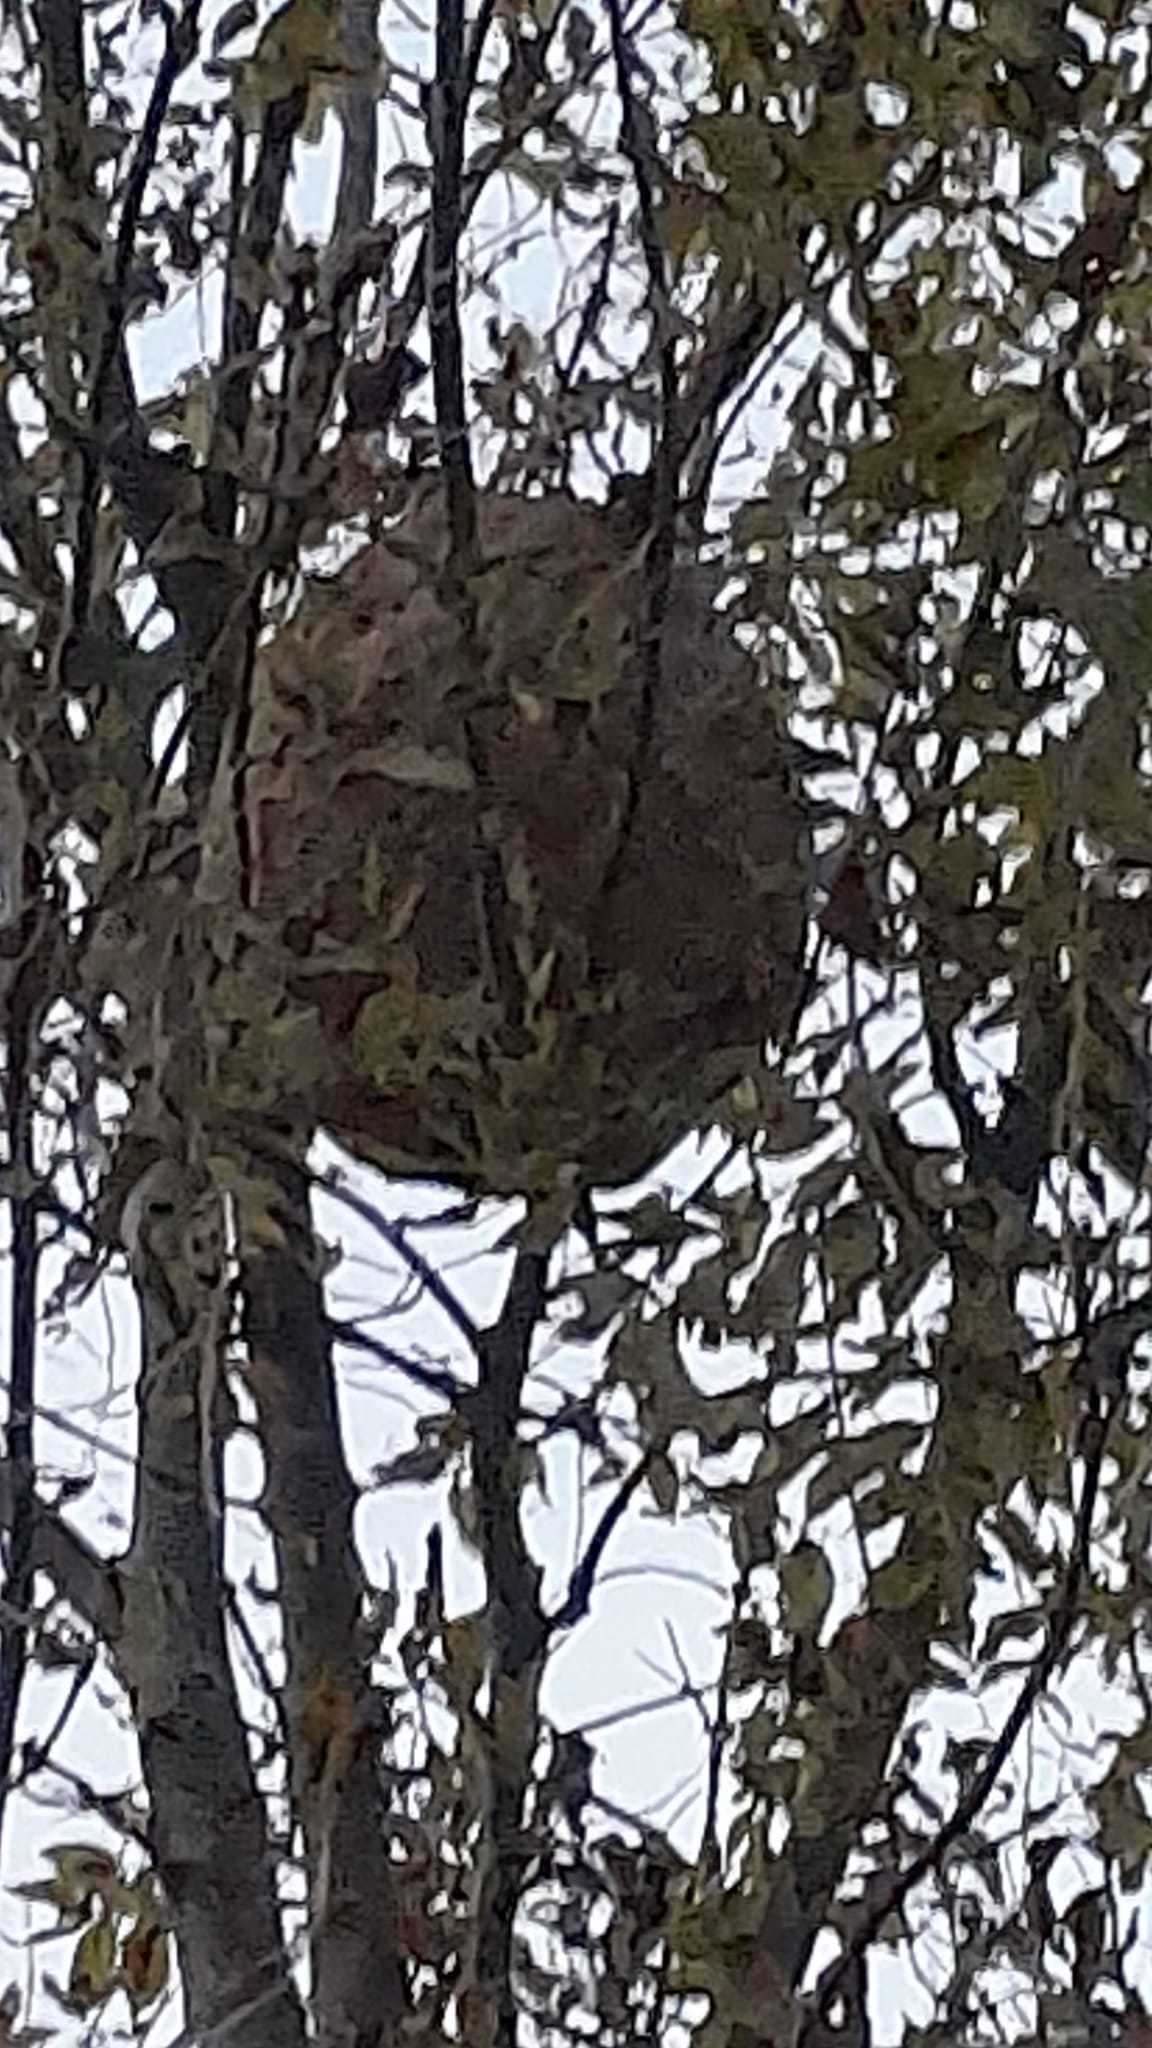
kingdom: Animalia
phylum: Arthropoda
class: Insecta
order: Hymenoptera
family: Vespidae
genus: Vespa
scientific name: Vespa velutina
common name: Asian hornet
